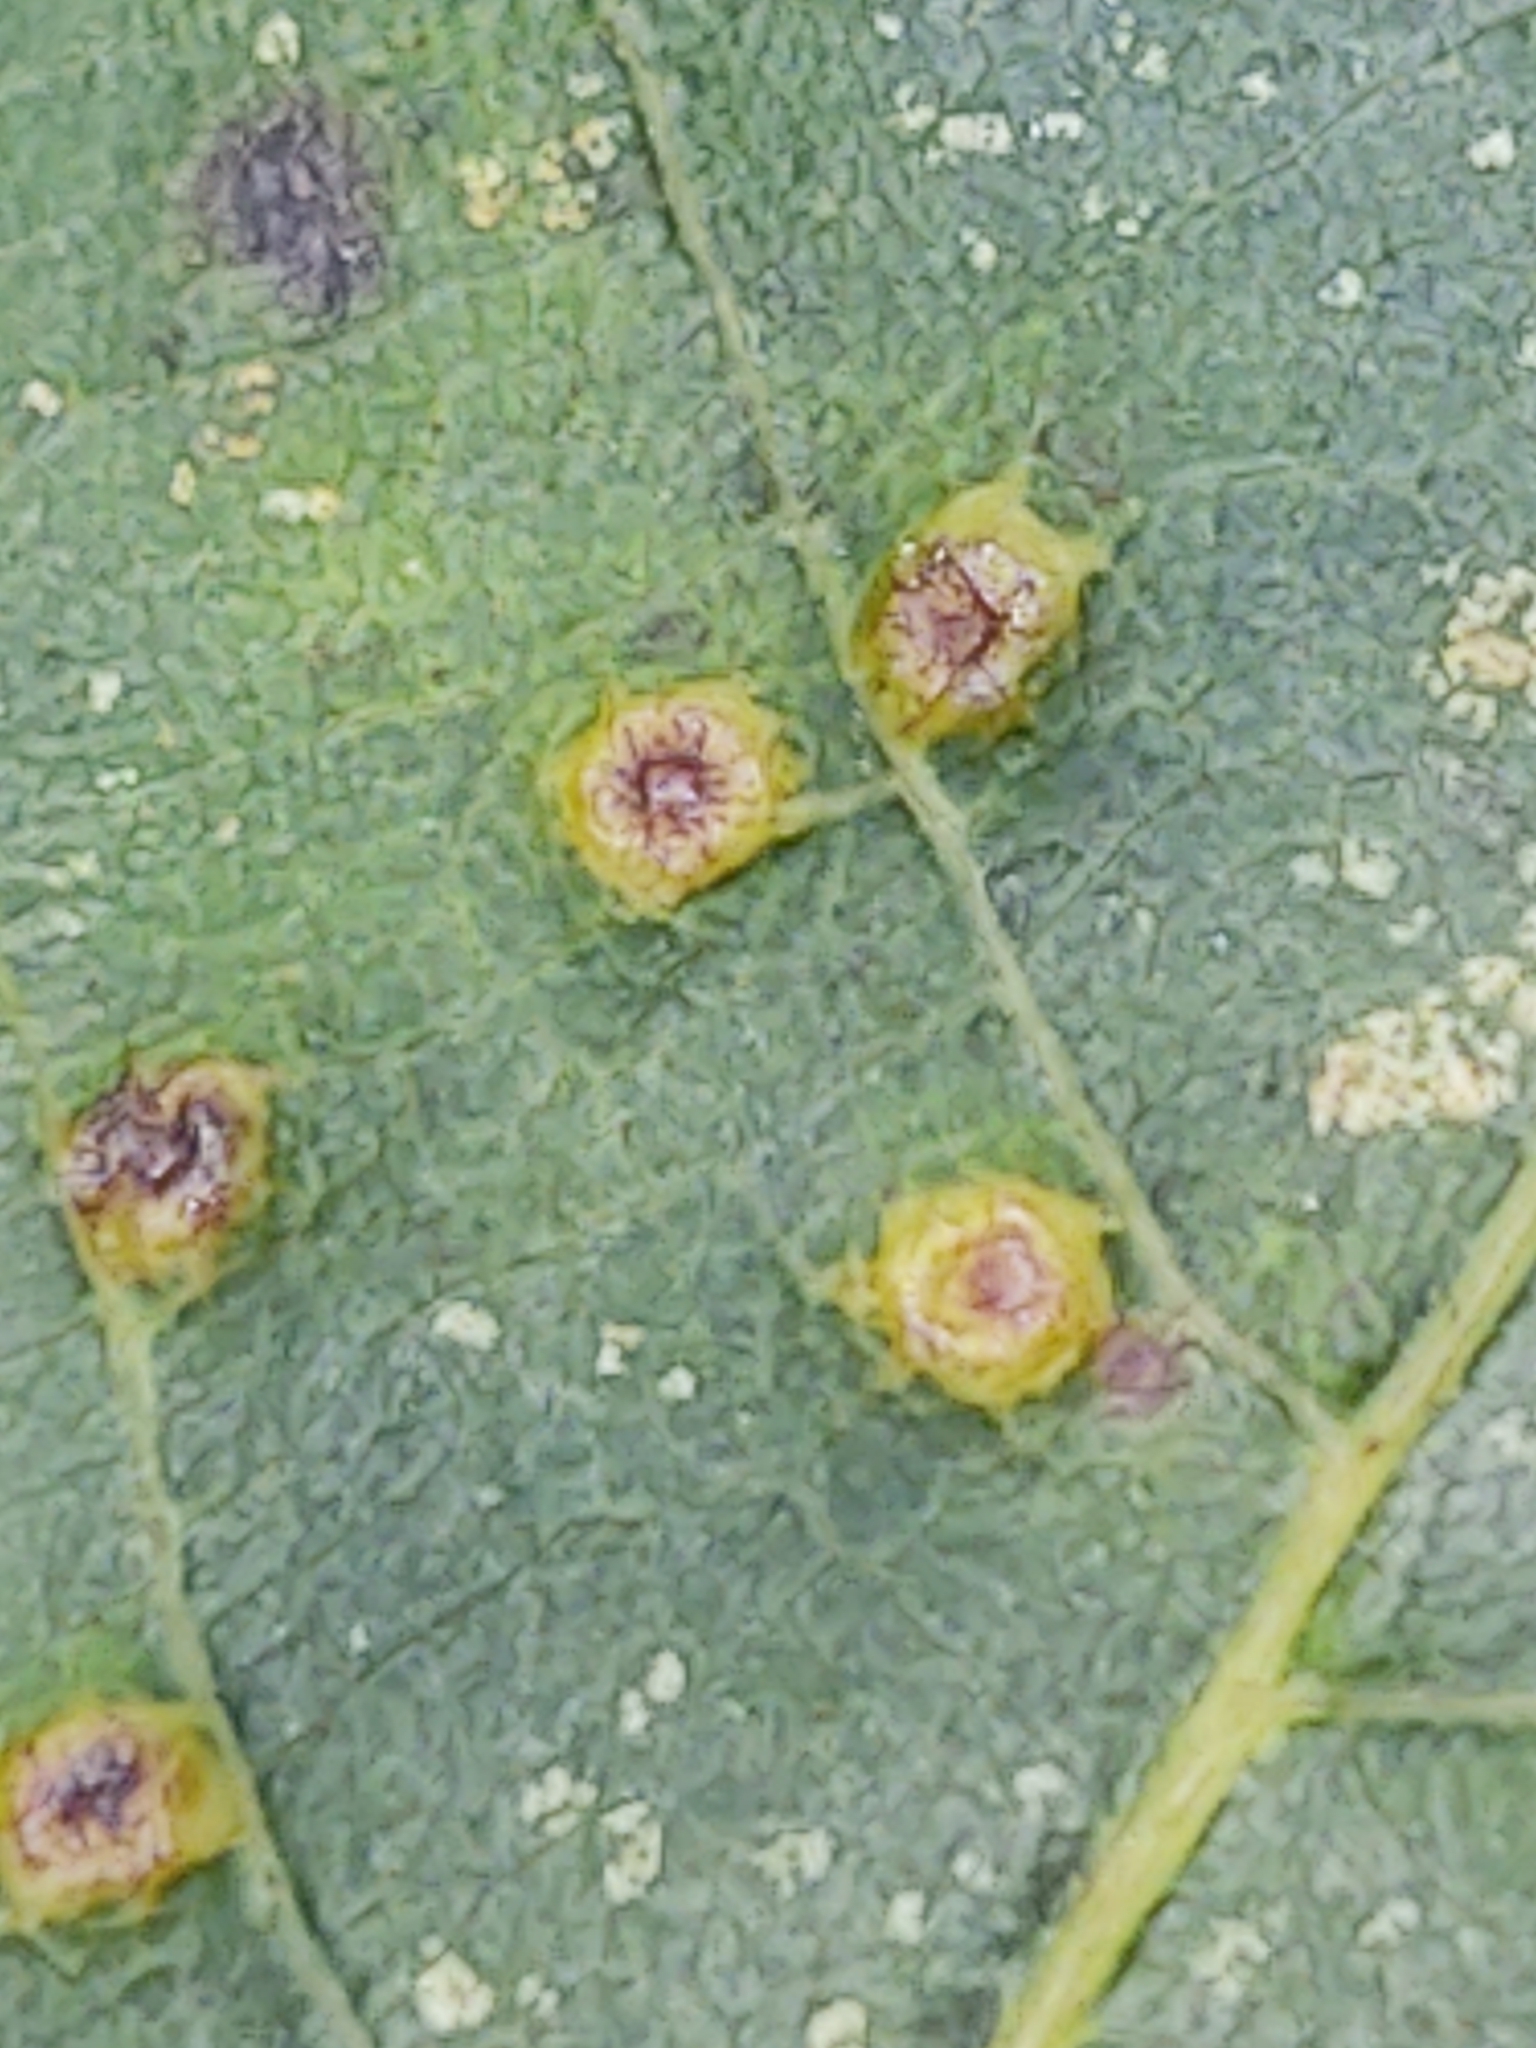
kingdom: Animalia
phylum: Arthropoda
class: Insecta
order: Diptera
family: Cecidomyiidae
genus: Caryomyia
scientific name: Caryomyia thompsoni
